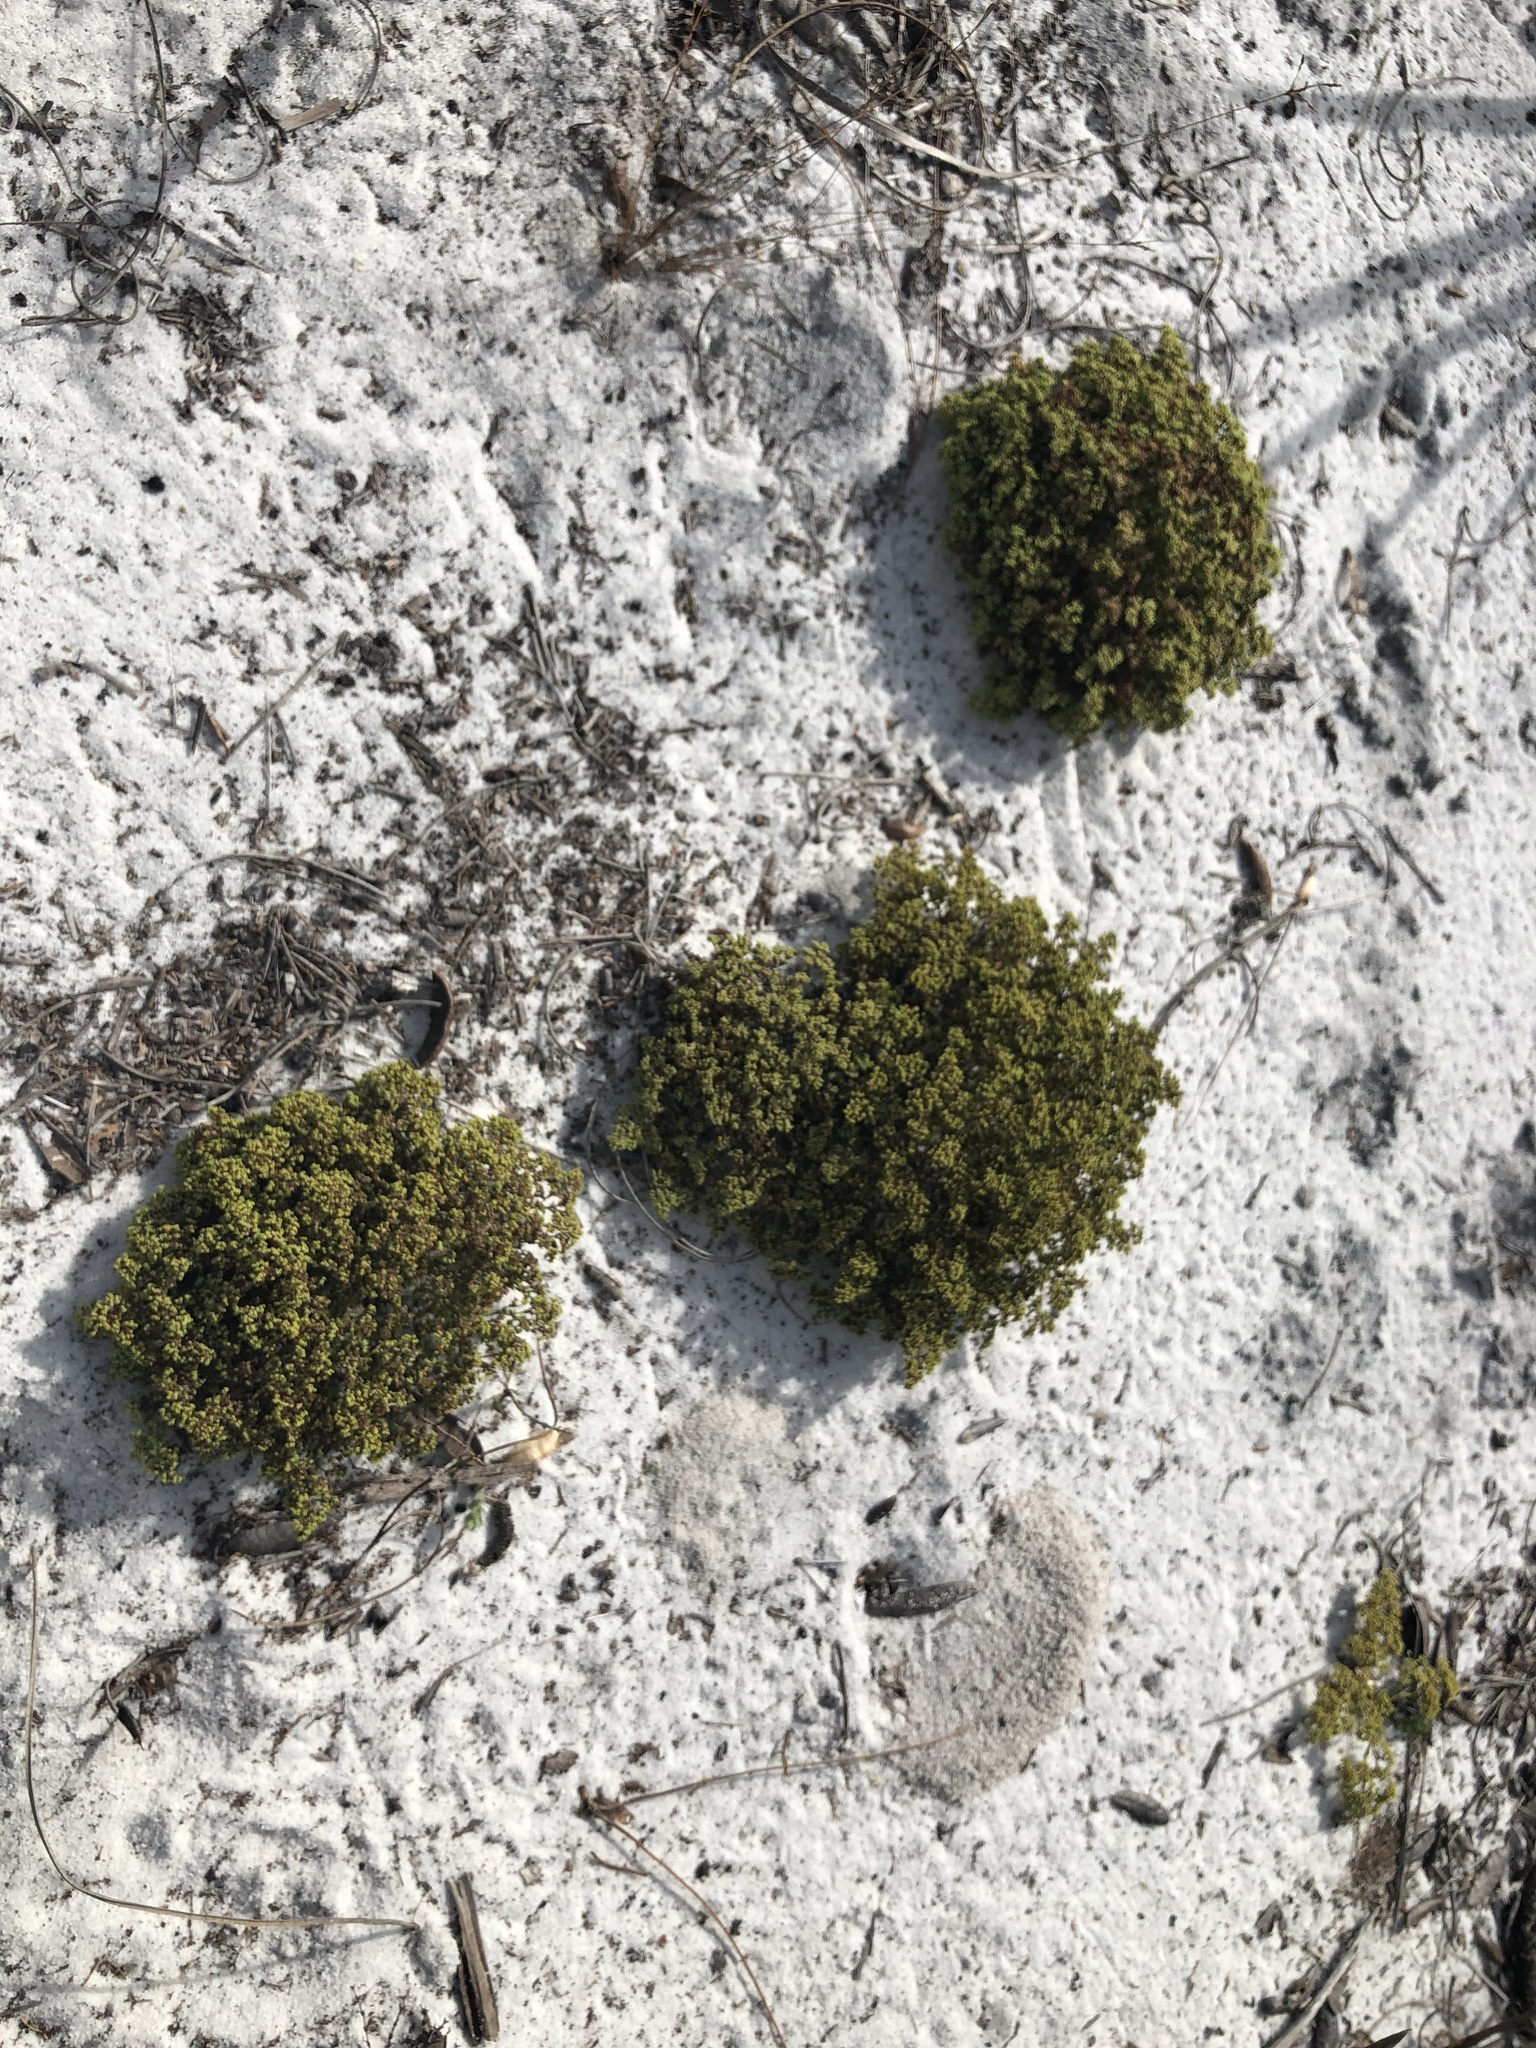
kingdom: Plantae
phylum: Tracheophyta
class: Magnoliopsida
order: Caryophyllales
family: Caryophyllaceae
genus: Paronychia
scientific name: Paronychia chartacea
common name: Paper nailwort
